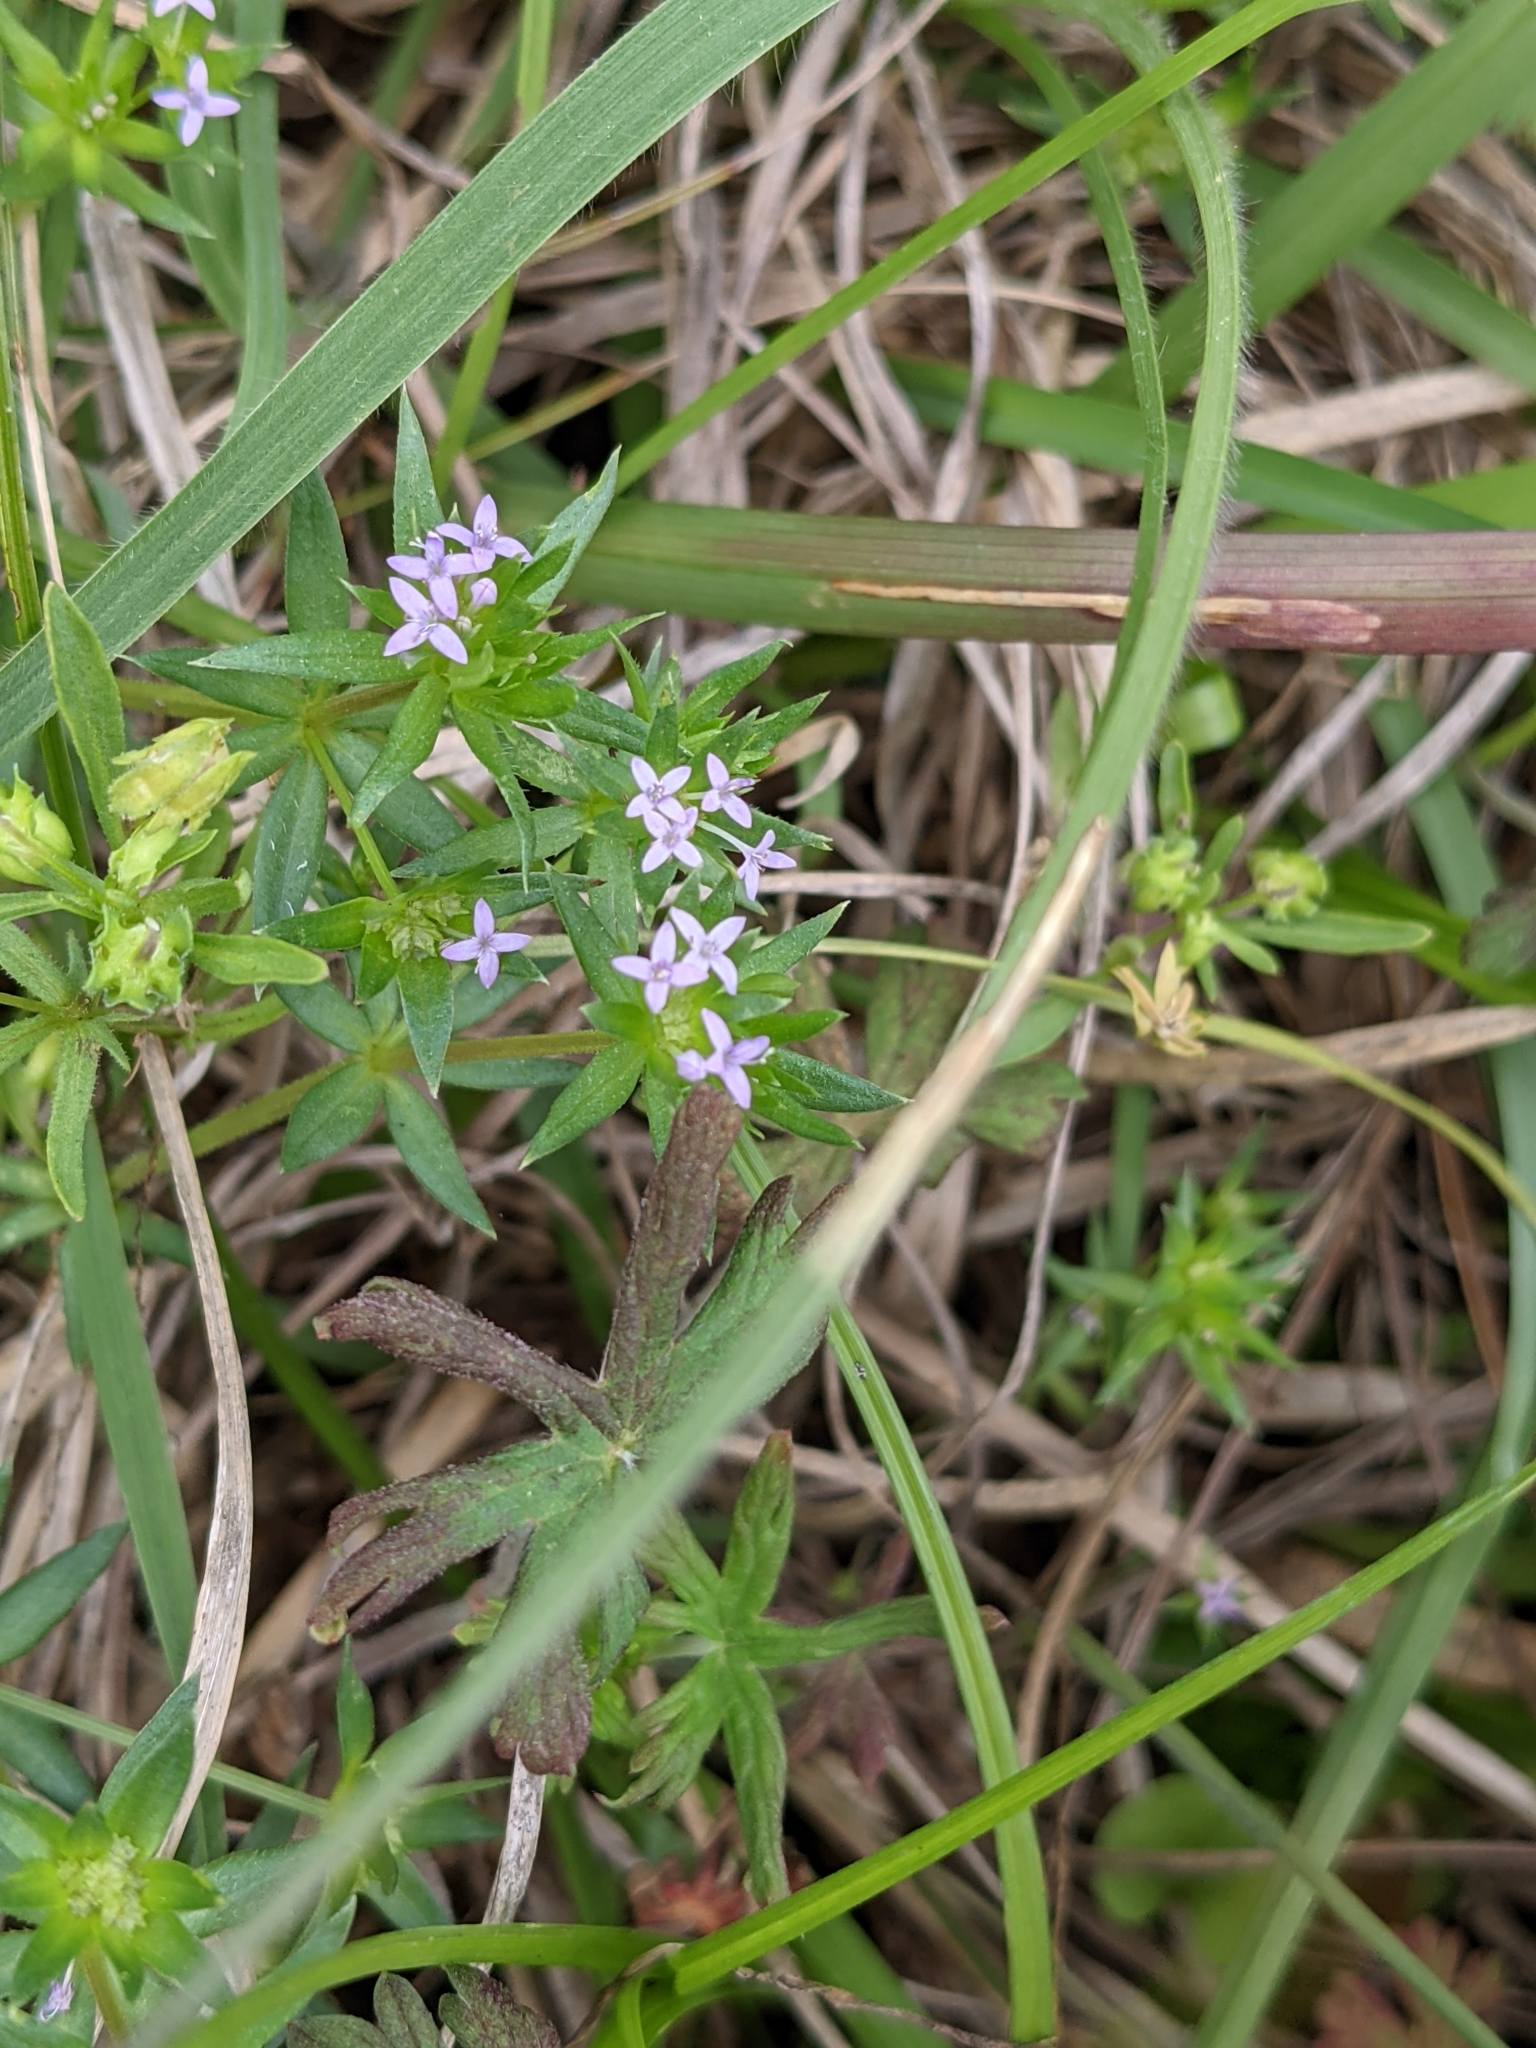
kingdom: Plantae
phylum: Tracheophyta
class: Magnoliopsida
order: Gentianales
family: Rubiaceae
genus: Sherardia
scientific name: Sherardia arvensis
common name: Field madder
